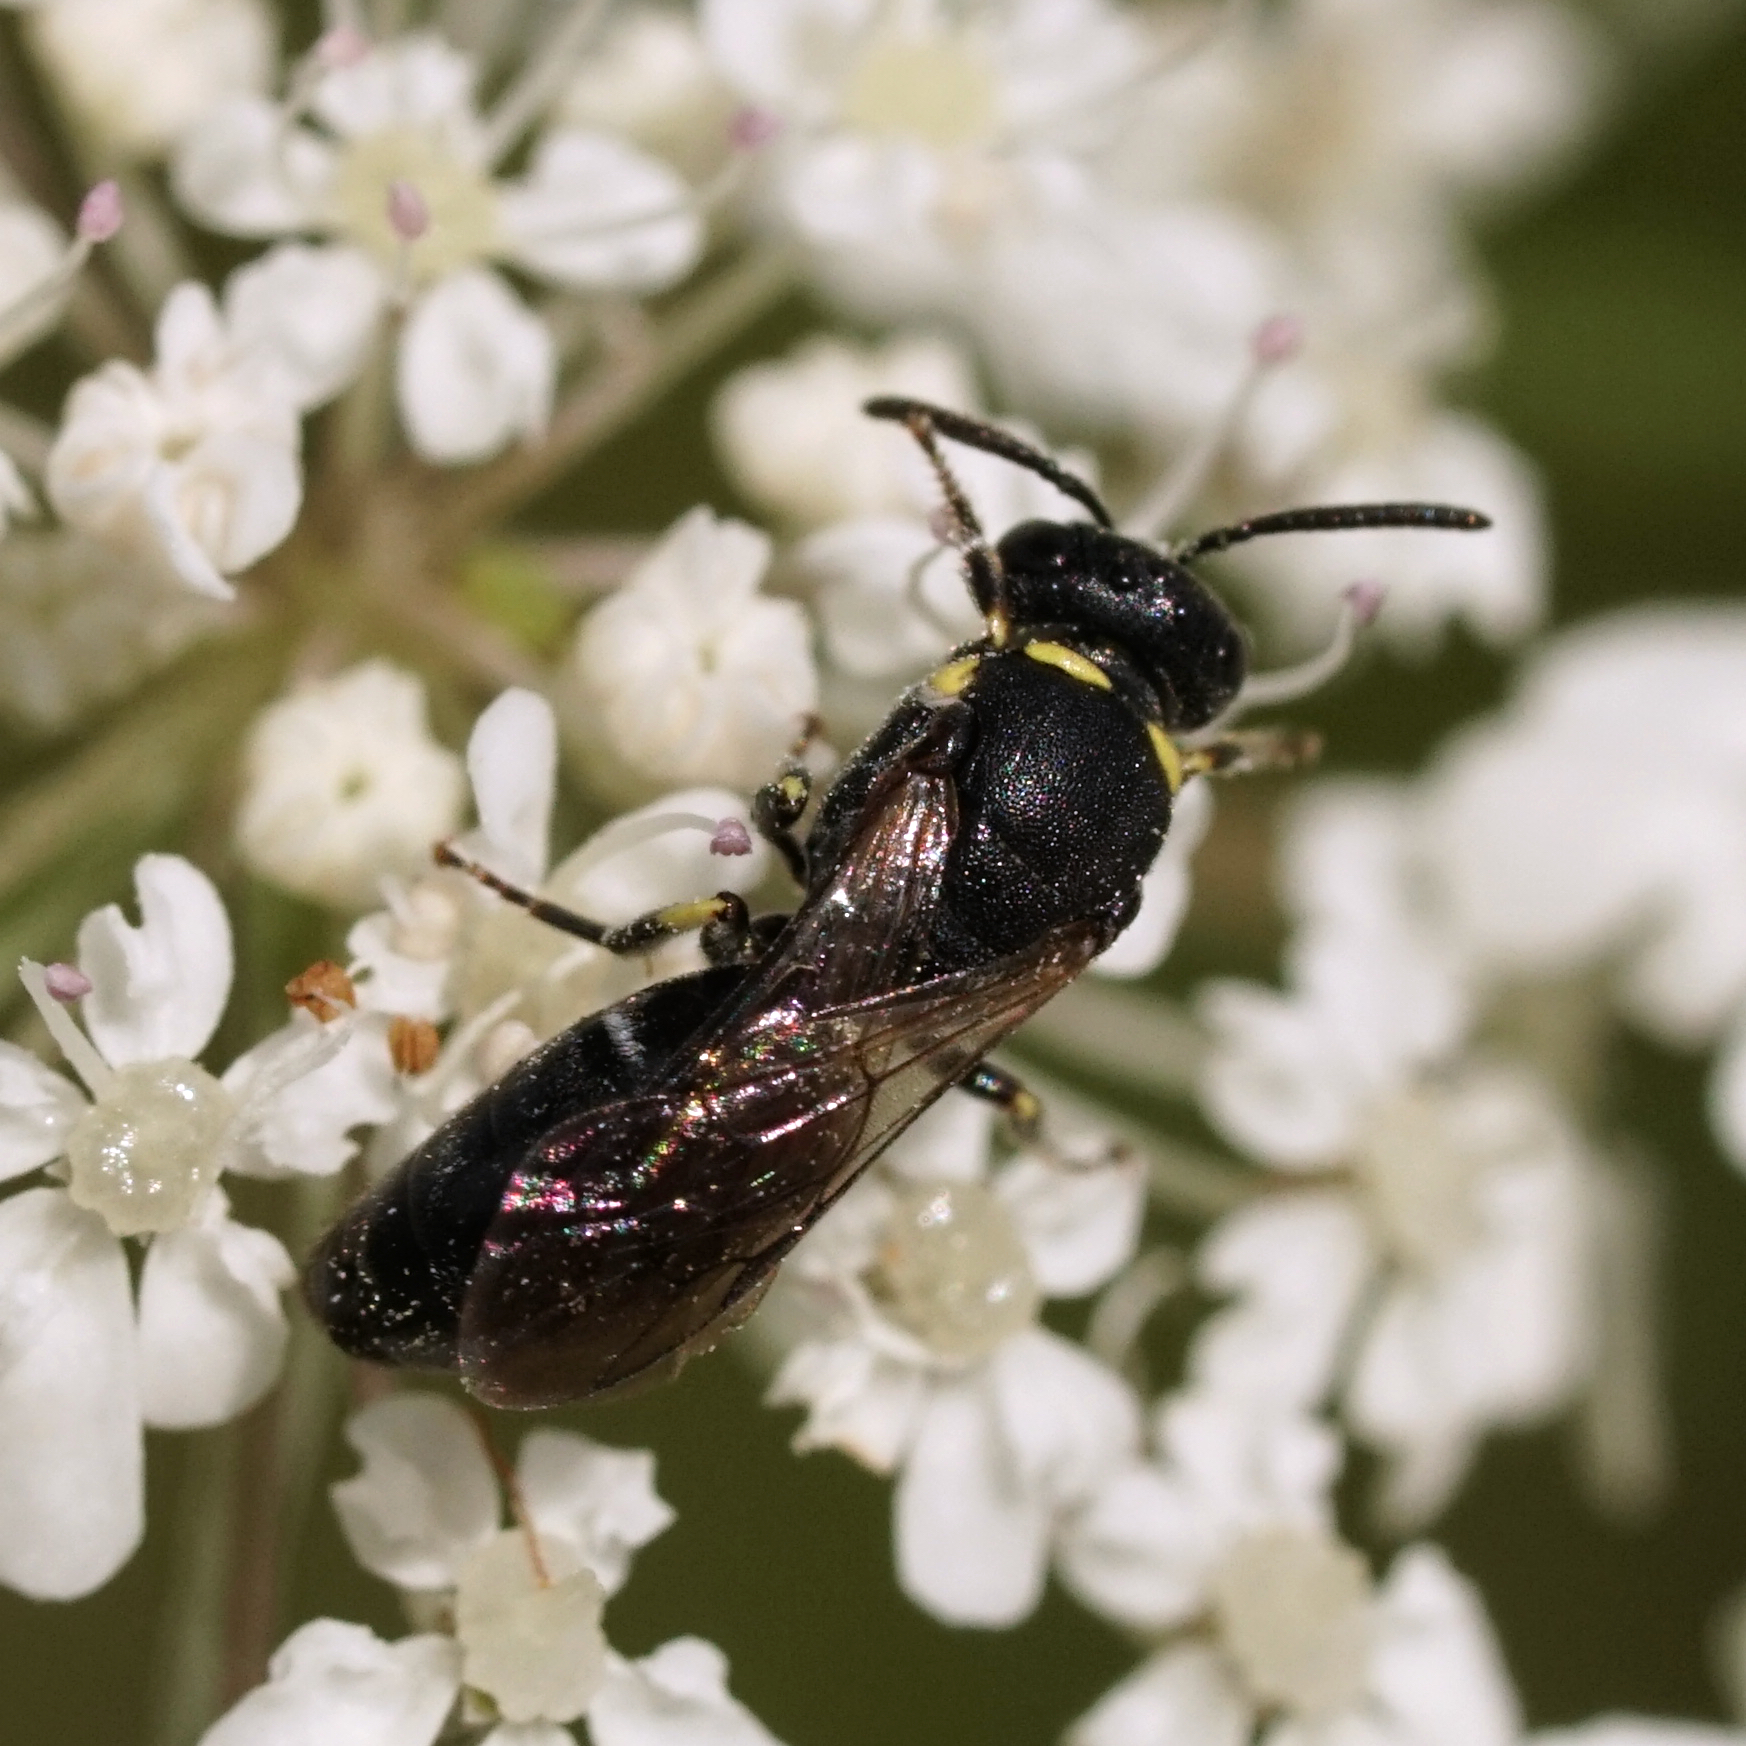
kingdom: Animalia
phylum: Arthropoda
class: Insecta
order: Hymenoptera
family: Colletidae
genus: Hylaeus
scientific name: Hylaeus modestus
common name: Yellow-faced bee
